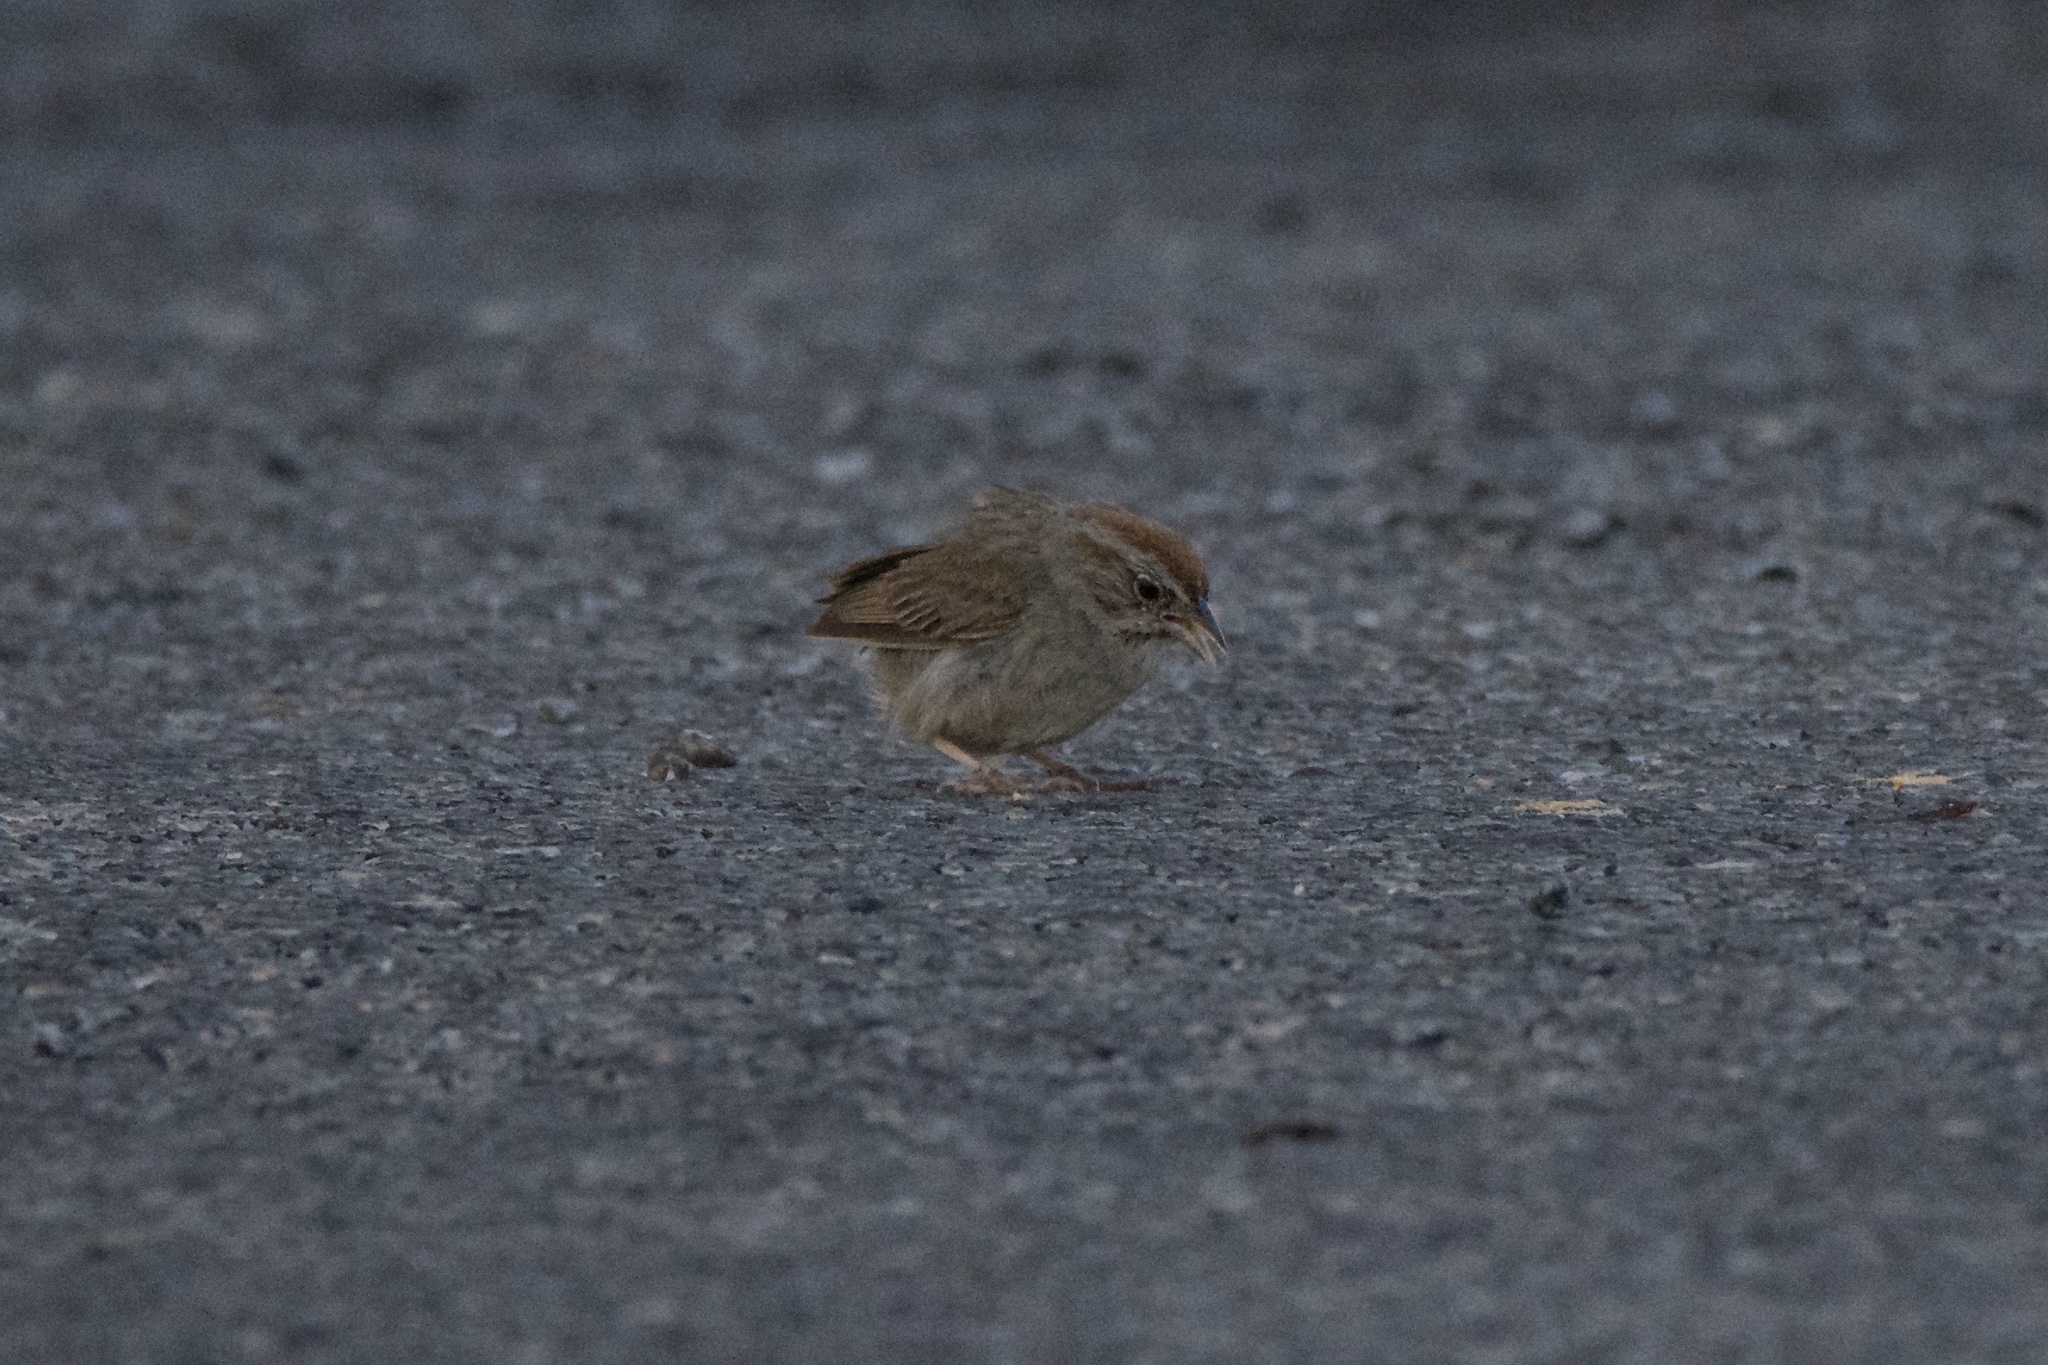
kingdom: Animalia
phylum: Chordata
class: Aves
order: Passeriformes
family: Passerellidae
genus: Aimophila
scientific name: Aimophila ruficeps
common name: Rufous-crowned sparrow
